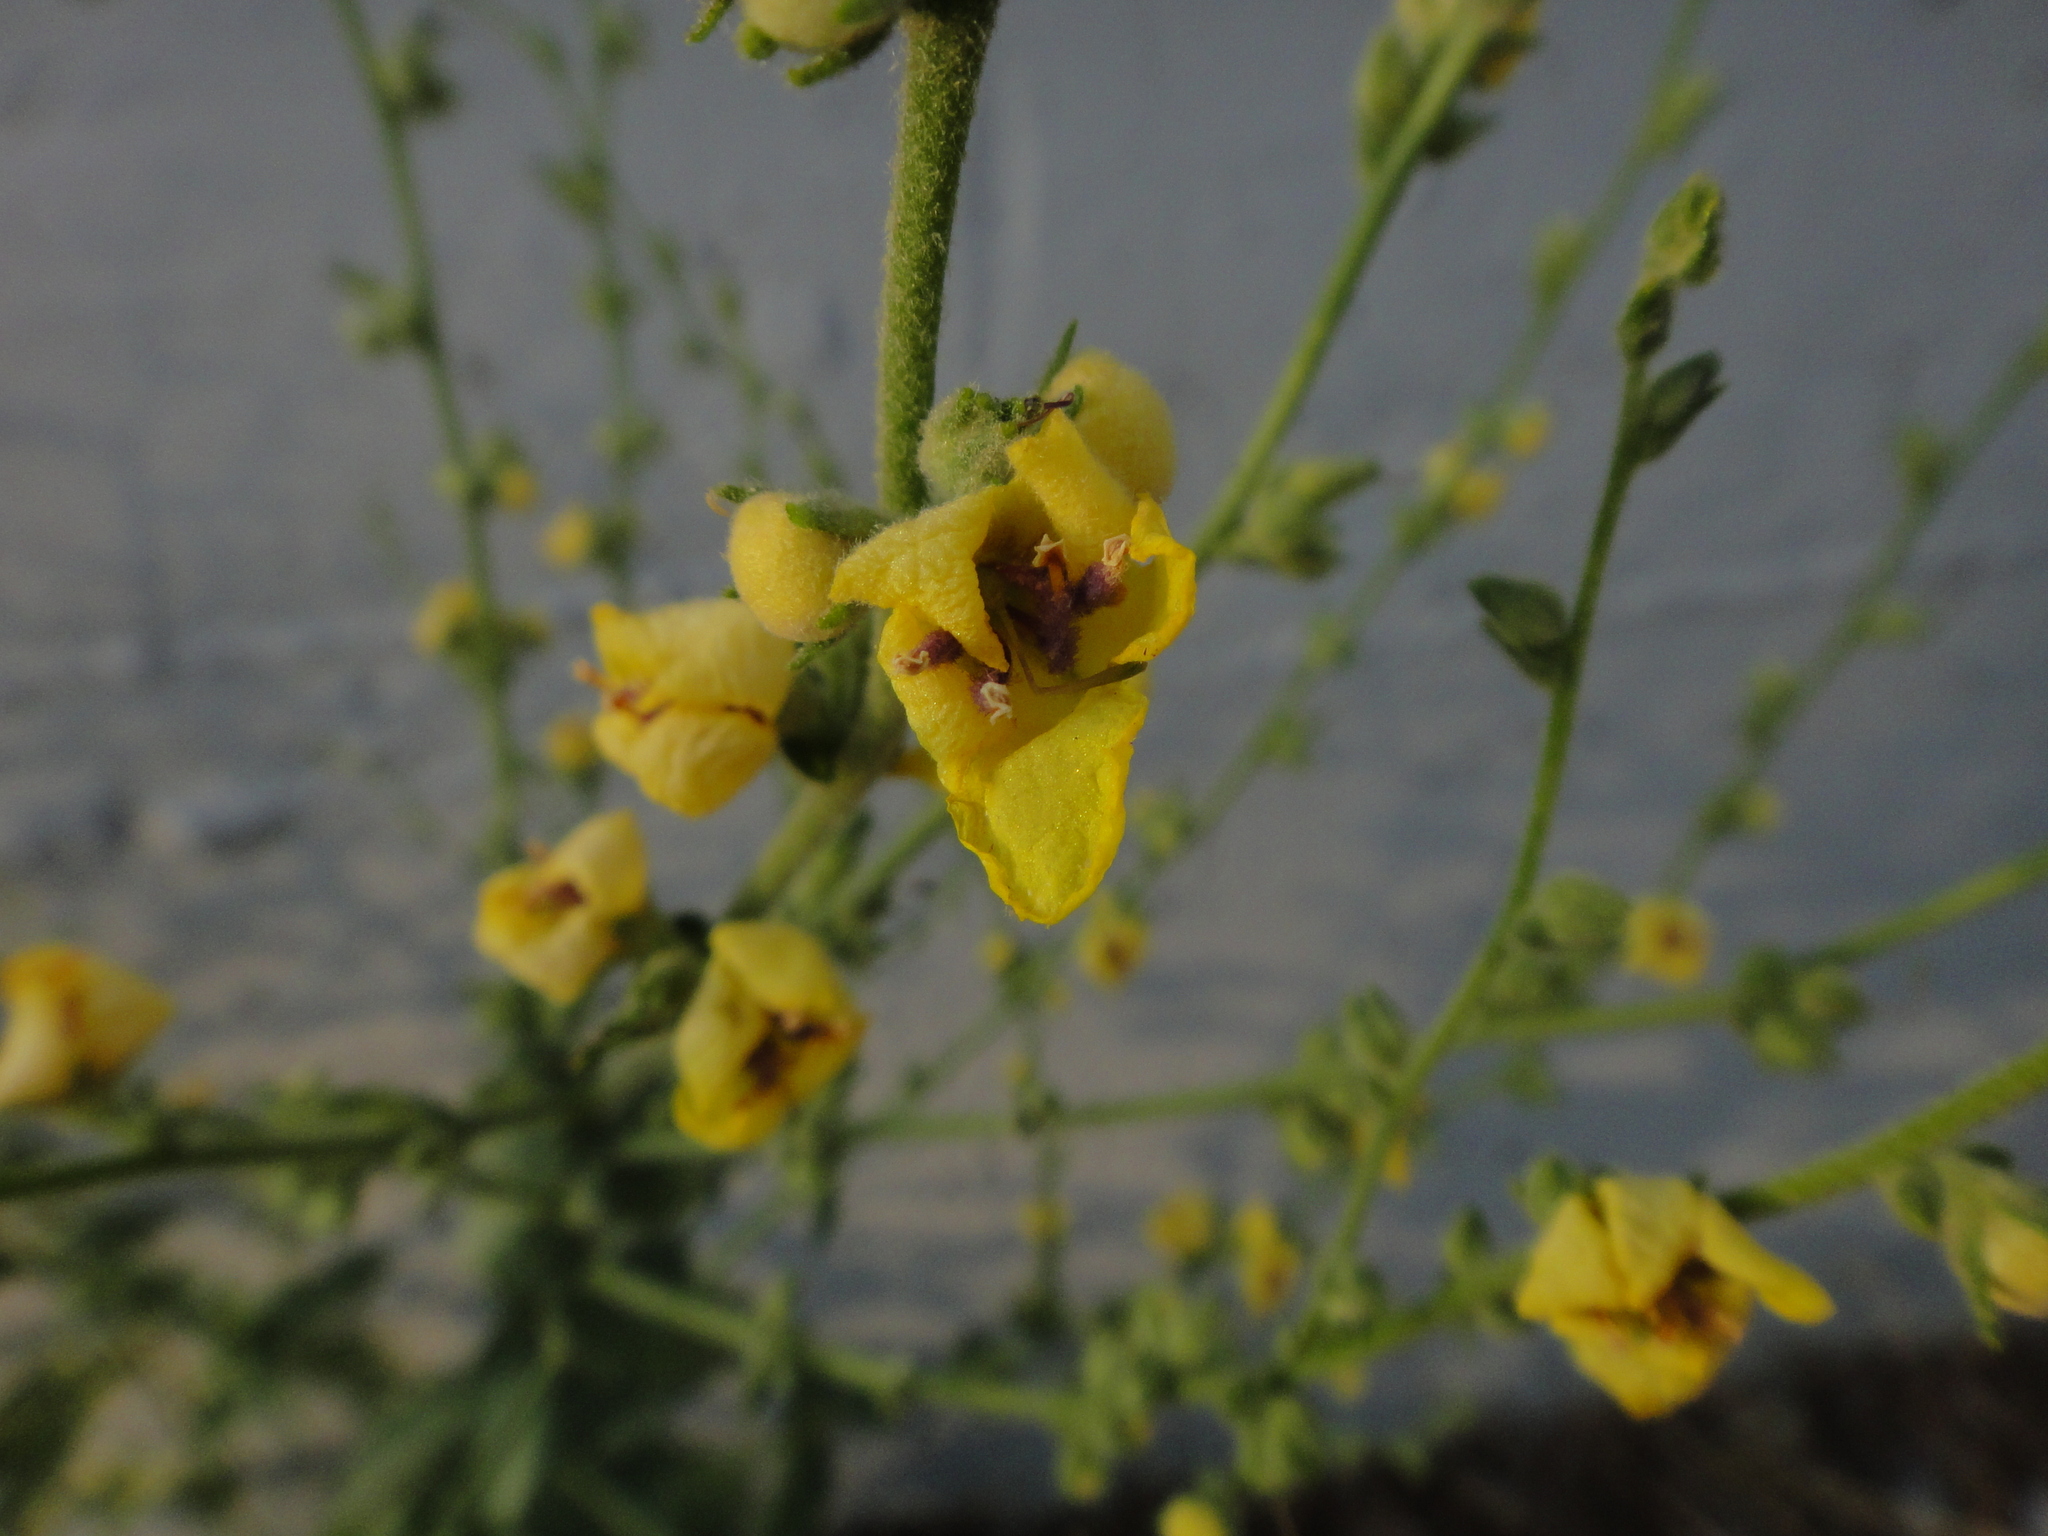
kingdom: Plantae
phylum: Tracheophyta
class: Magnoliopsida
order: Lamiales
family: Scrophulariaceae
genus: Verbascum
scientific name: Verbascum sinuatum
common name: Wavyleaf mullein
